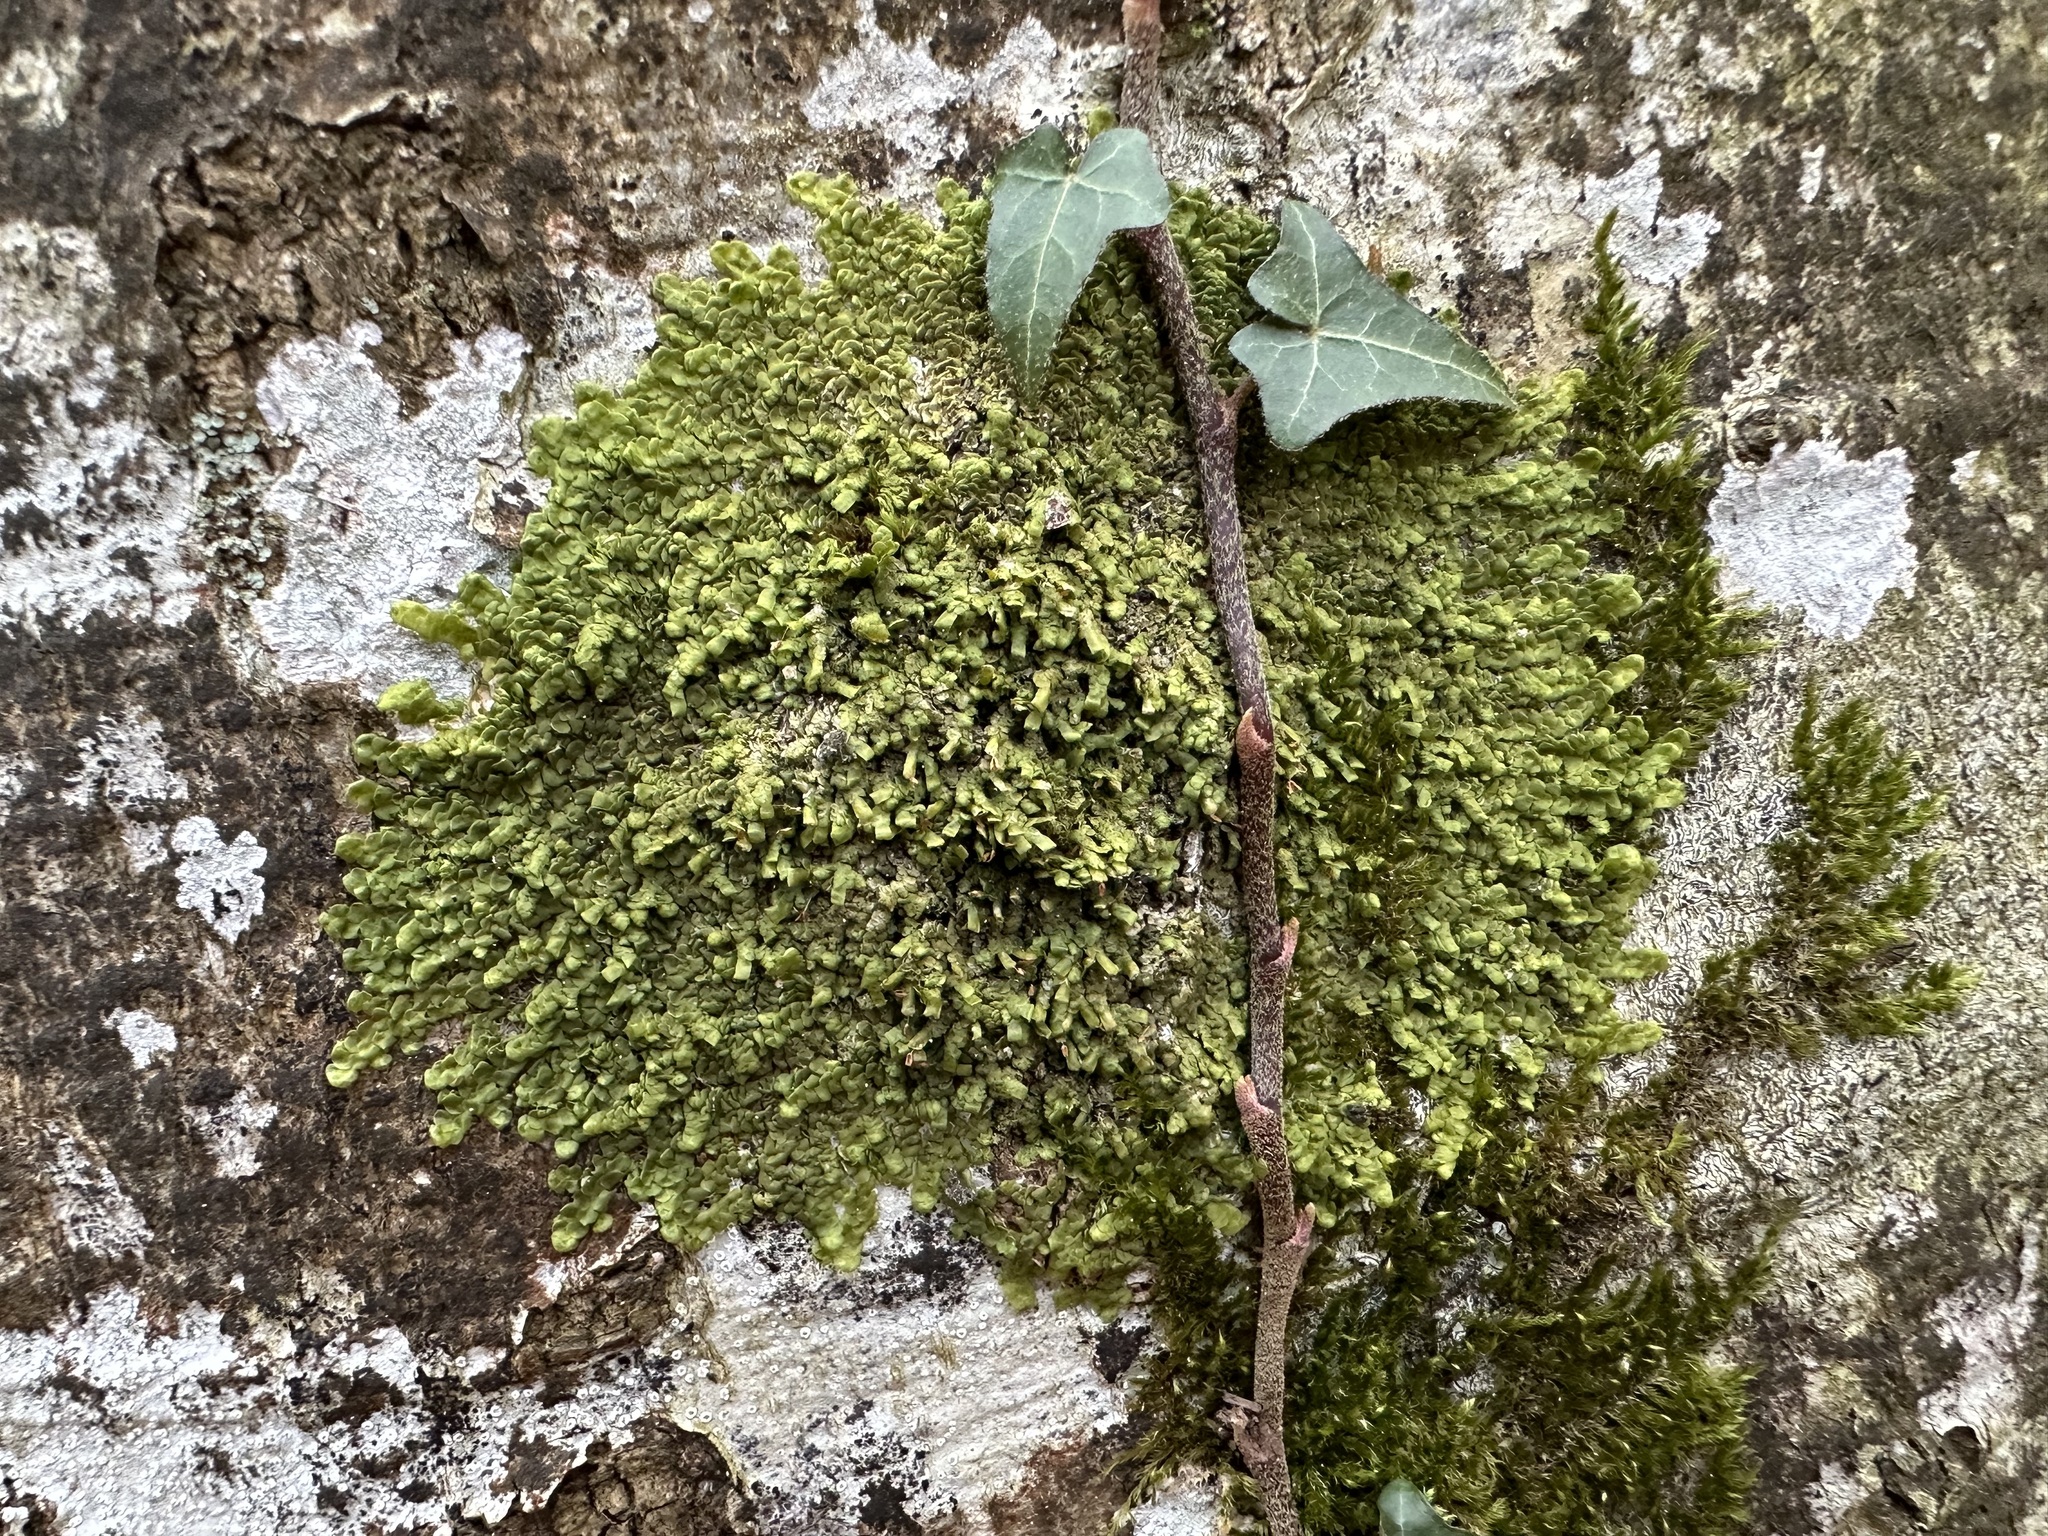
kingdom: Plantae
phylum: Marchantiophyta
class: Jungermanniopsida
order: Porellales
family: Radulaceae
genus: Radula
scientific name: Radula complanata
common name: Flat-leaved scalewort
